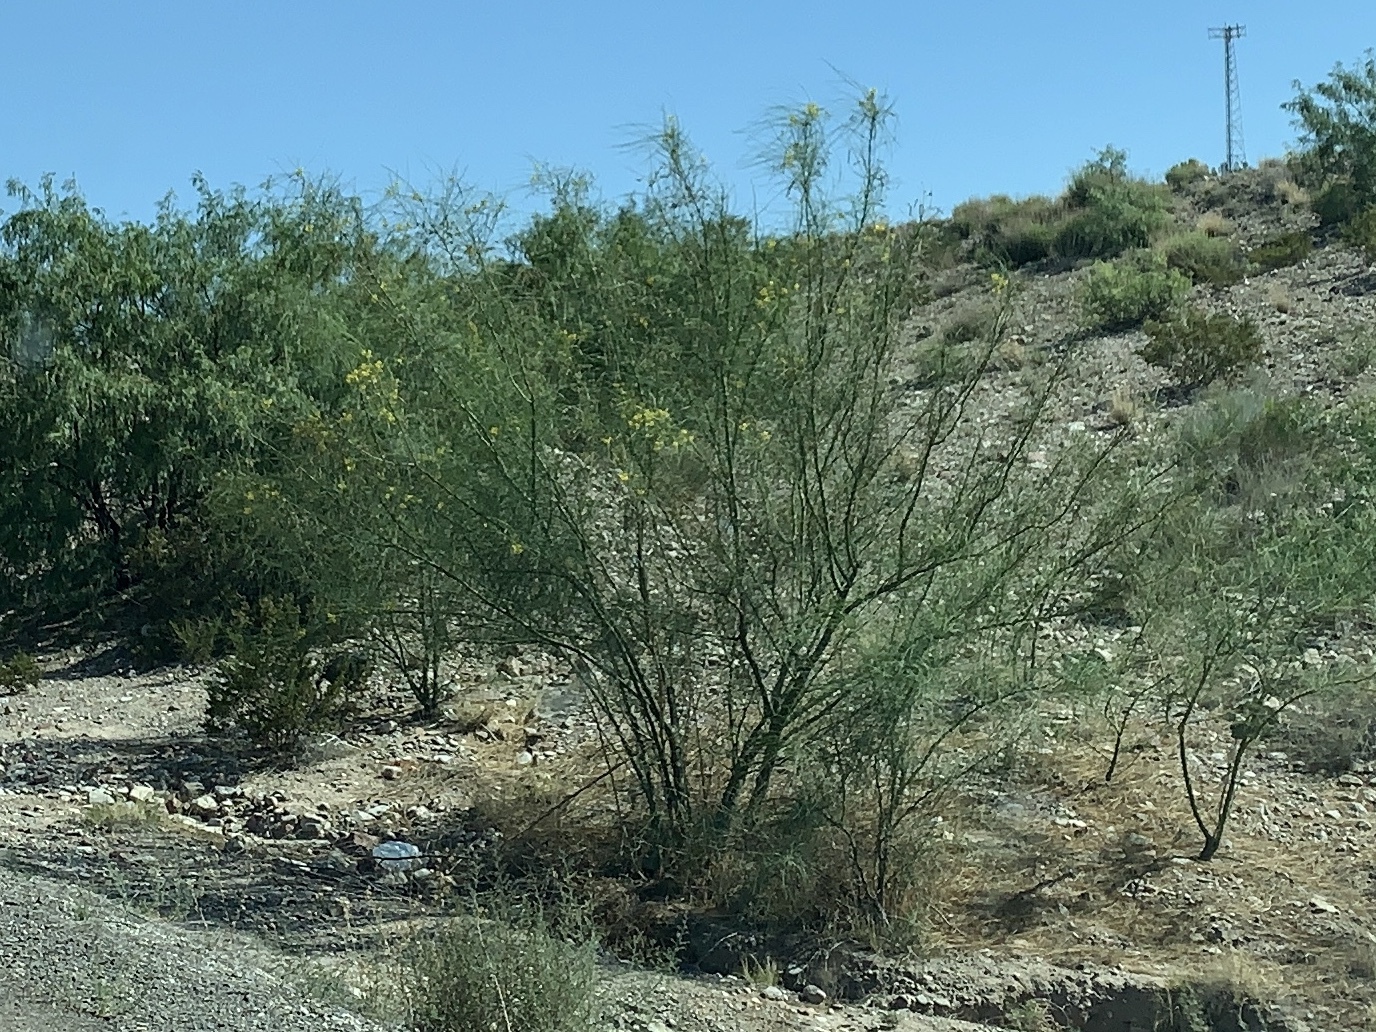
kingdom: Plantae
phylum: Tracheophyta
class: Magnoliopsida
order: Fabales
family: Fabaceae
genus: Parkinsonia
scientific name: Parkinsonia aculeata
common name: Jerusalem thorn
